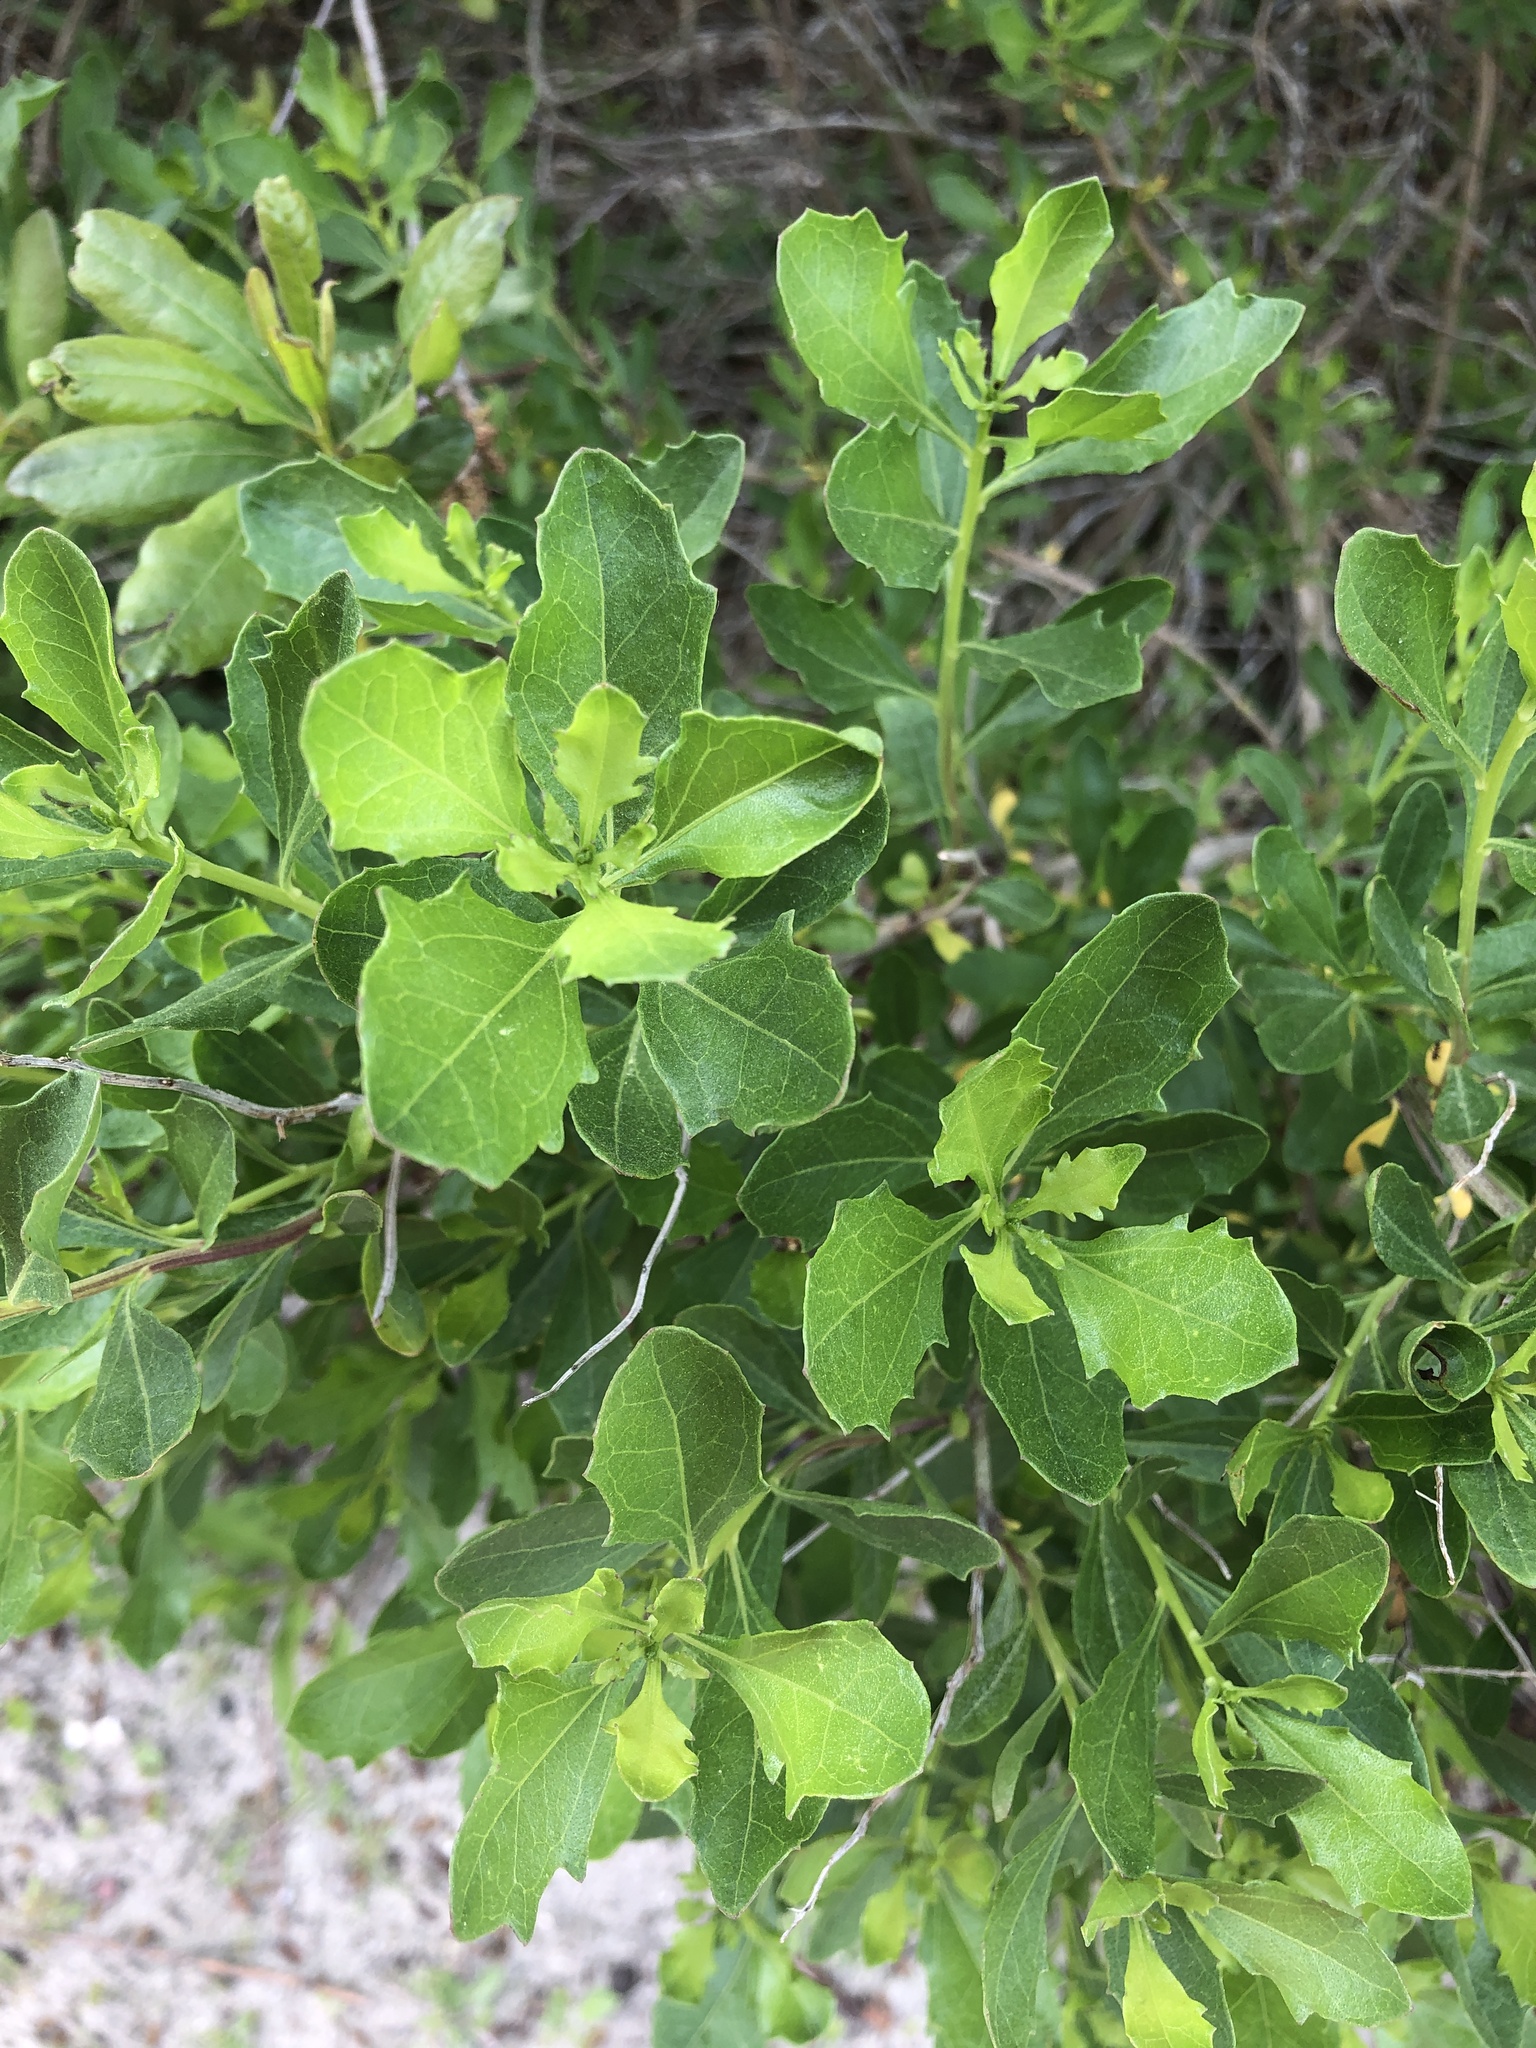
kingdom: Plantae
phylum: Tracheophyta
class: Magnoliopsida
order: Asterales
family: Asteraceae
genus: Baccharis
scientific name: Baccharis halimifolia
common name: Eastern baccharis
